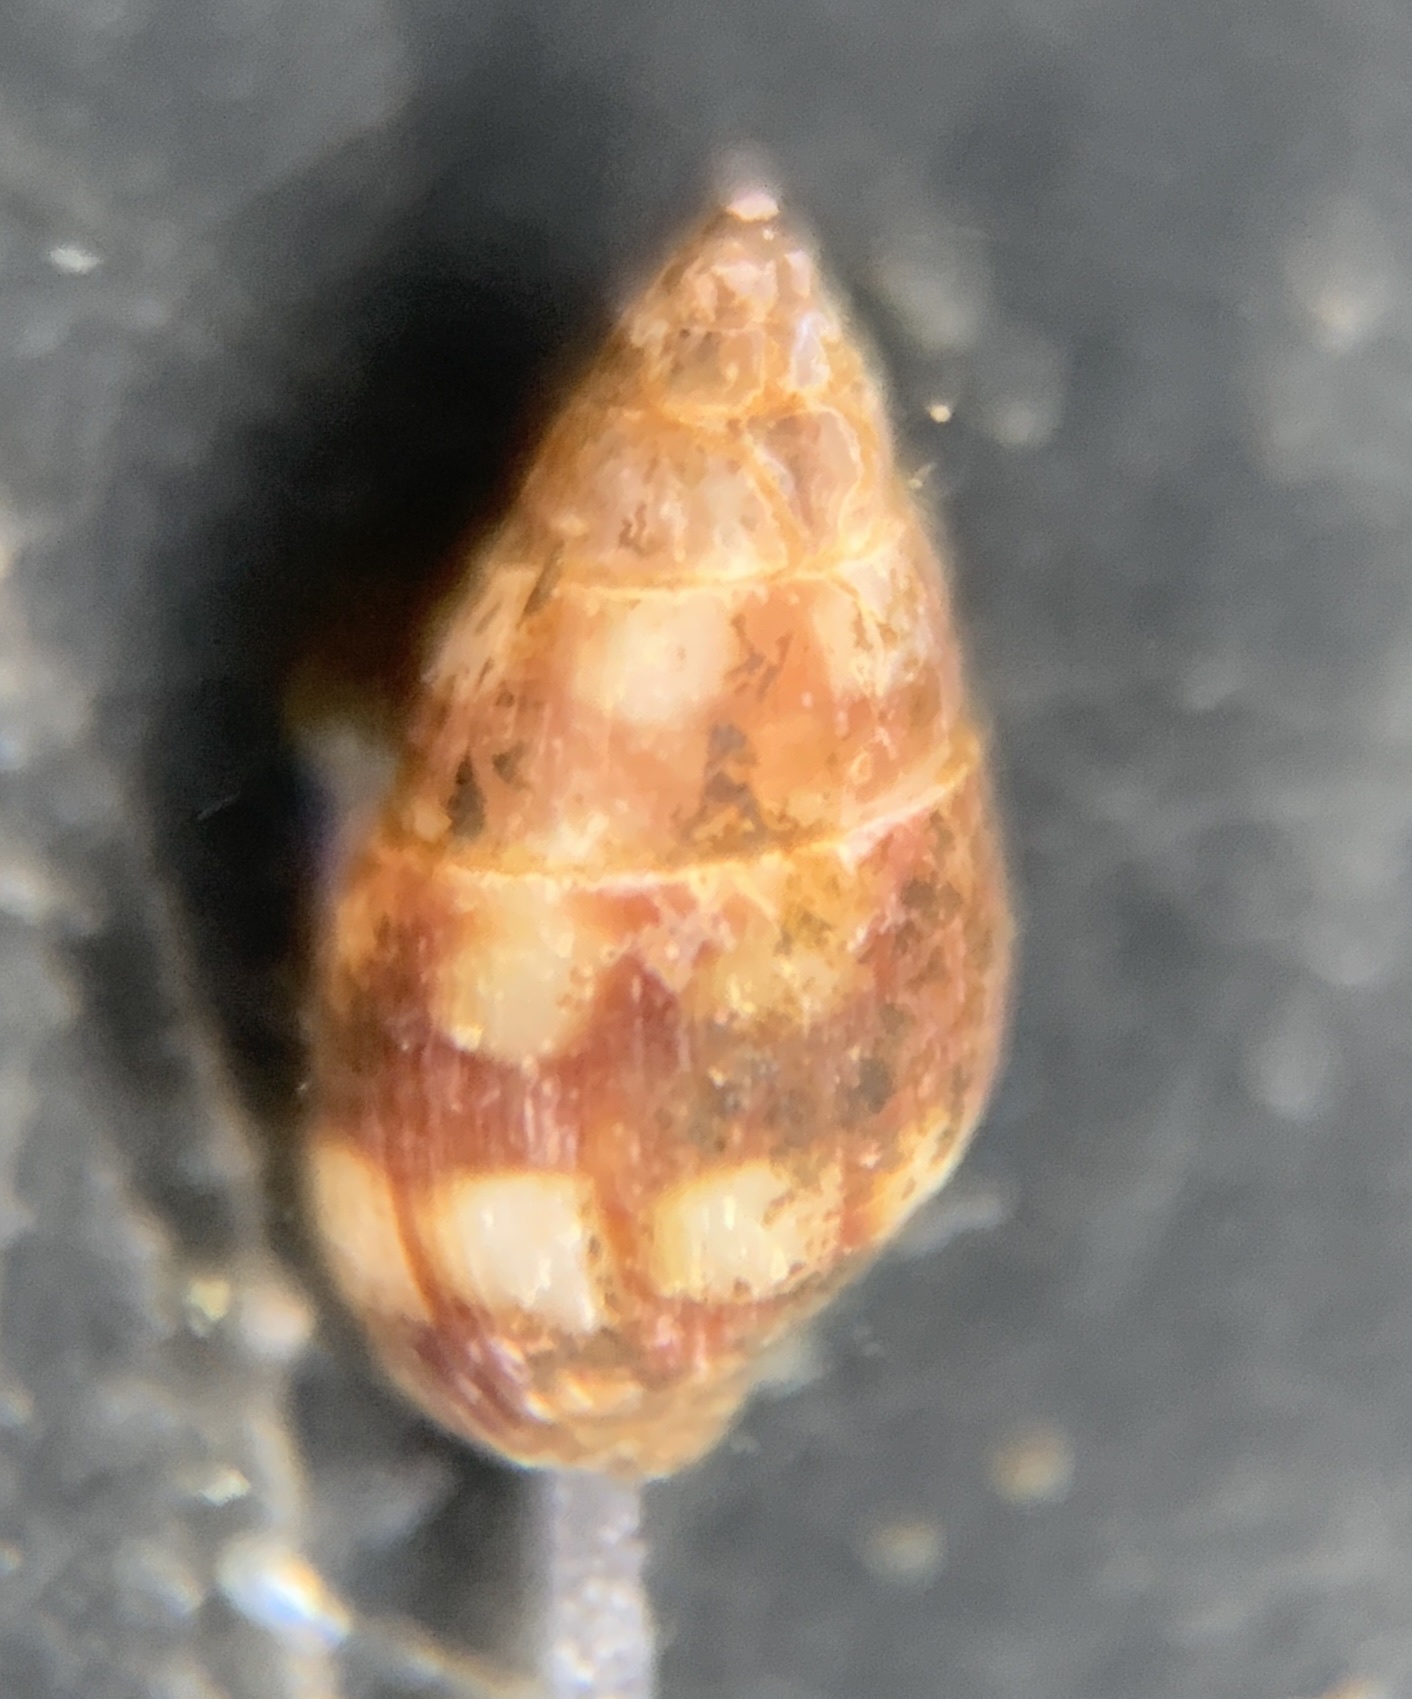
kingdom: Animalia
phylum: Mollusca
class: Gastropoda
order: Neogastropoda
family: Columbellidae
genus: Astyris
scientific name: Astyris lunata
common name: Lunar dovesnail
